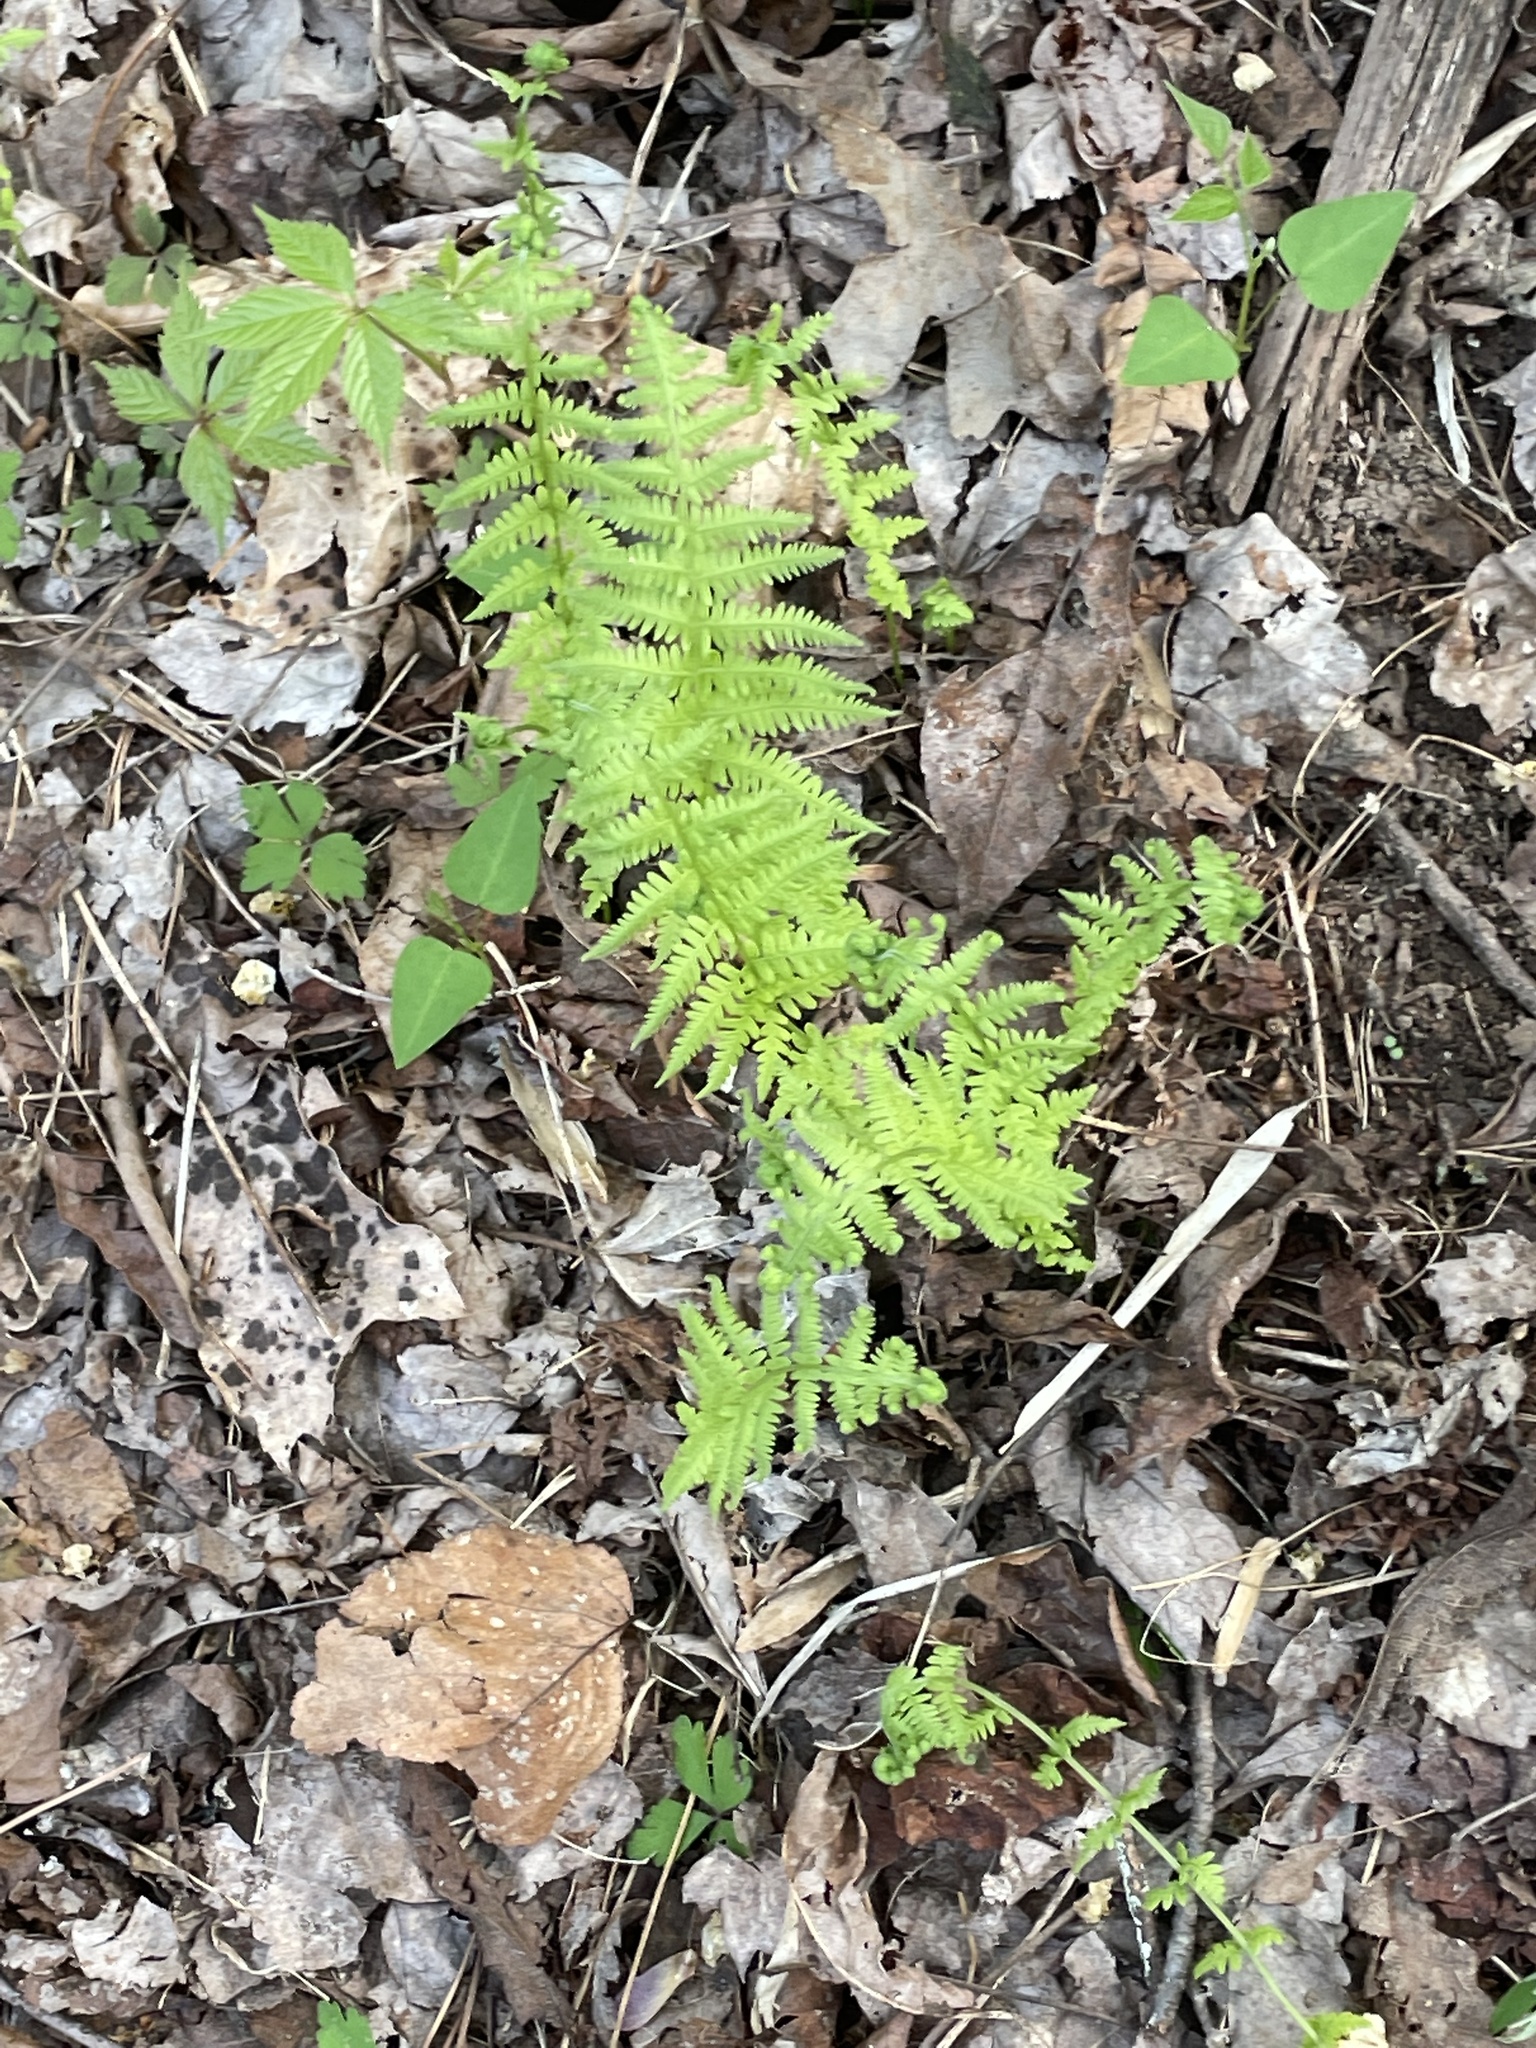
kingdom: Plantae
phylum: Tracheophyta
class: Polypodiopsida
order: Polypodiales
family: Thelypteridaceae
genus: Amauropelta
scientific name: Amauropelta noveboracensis
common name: New york fern
